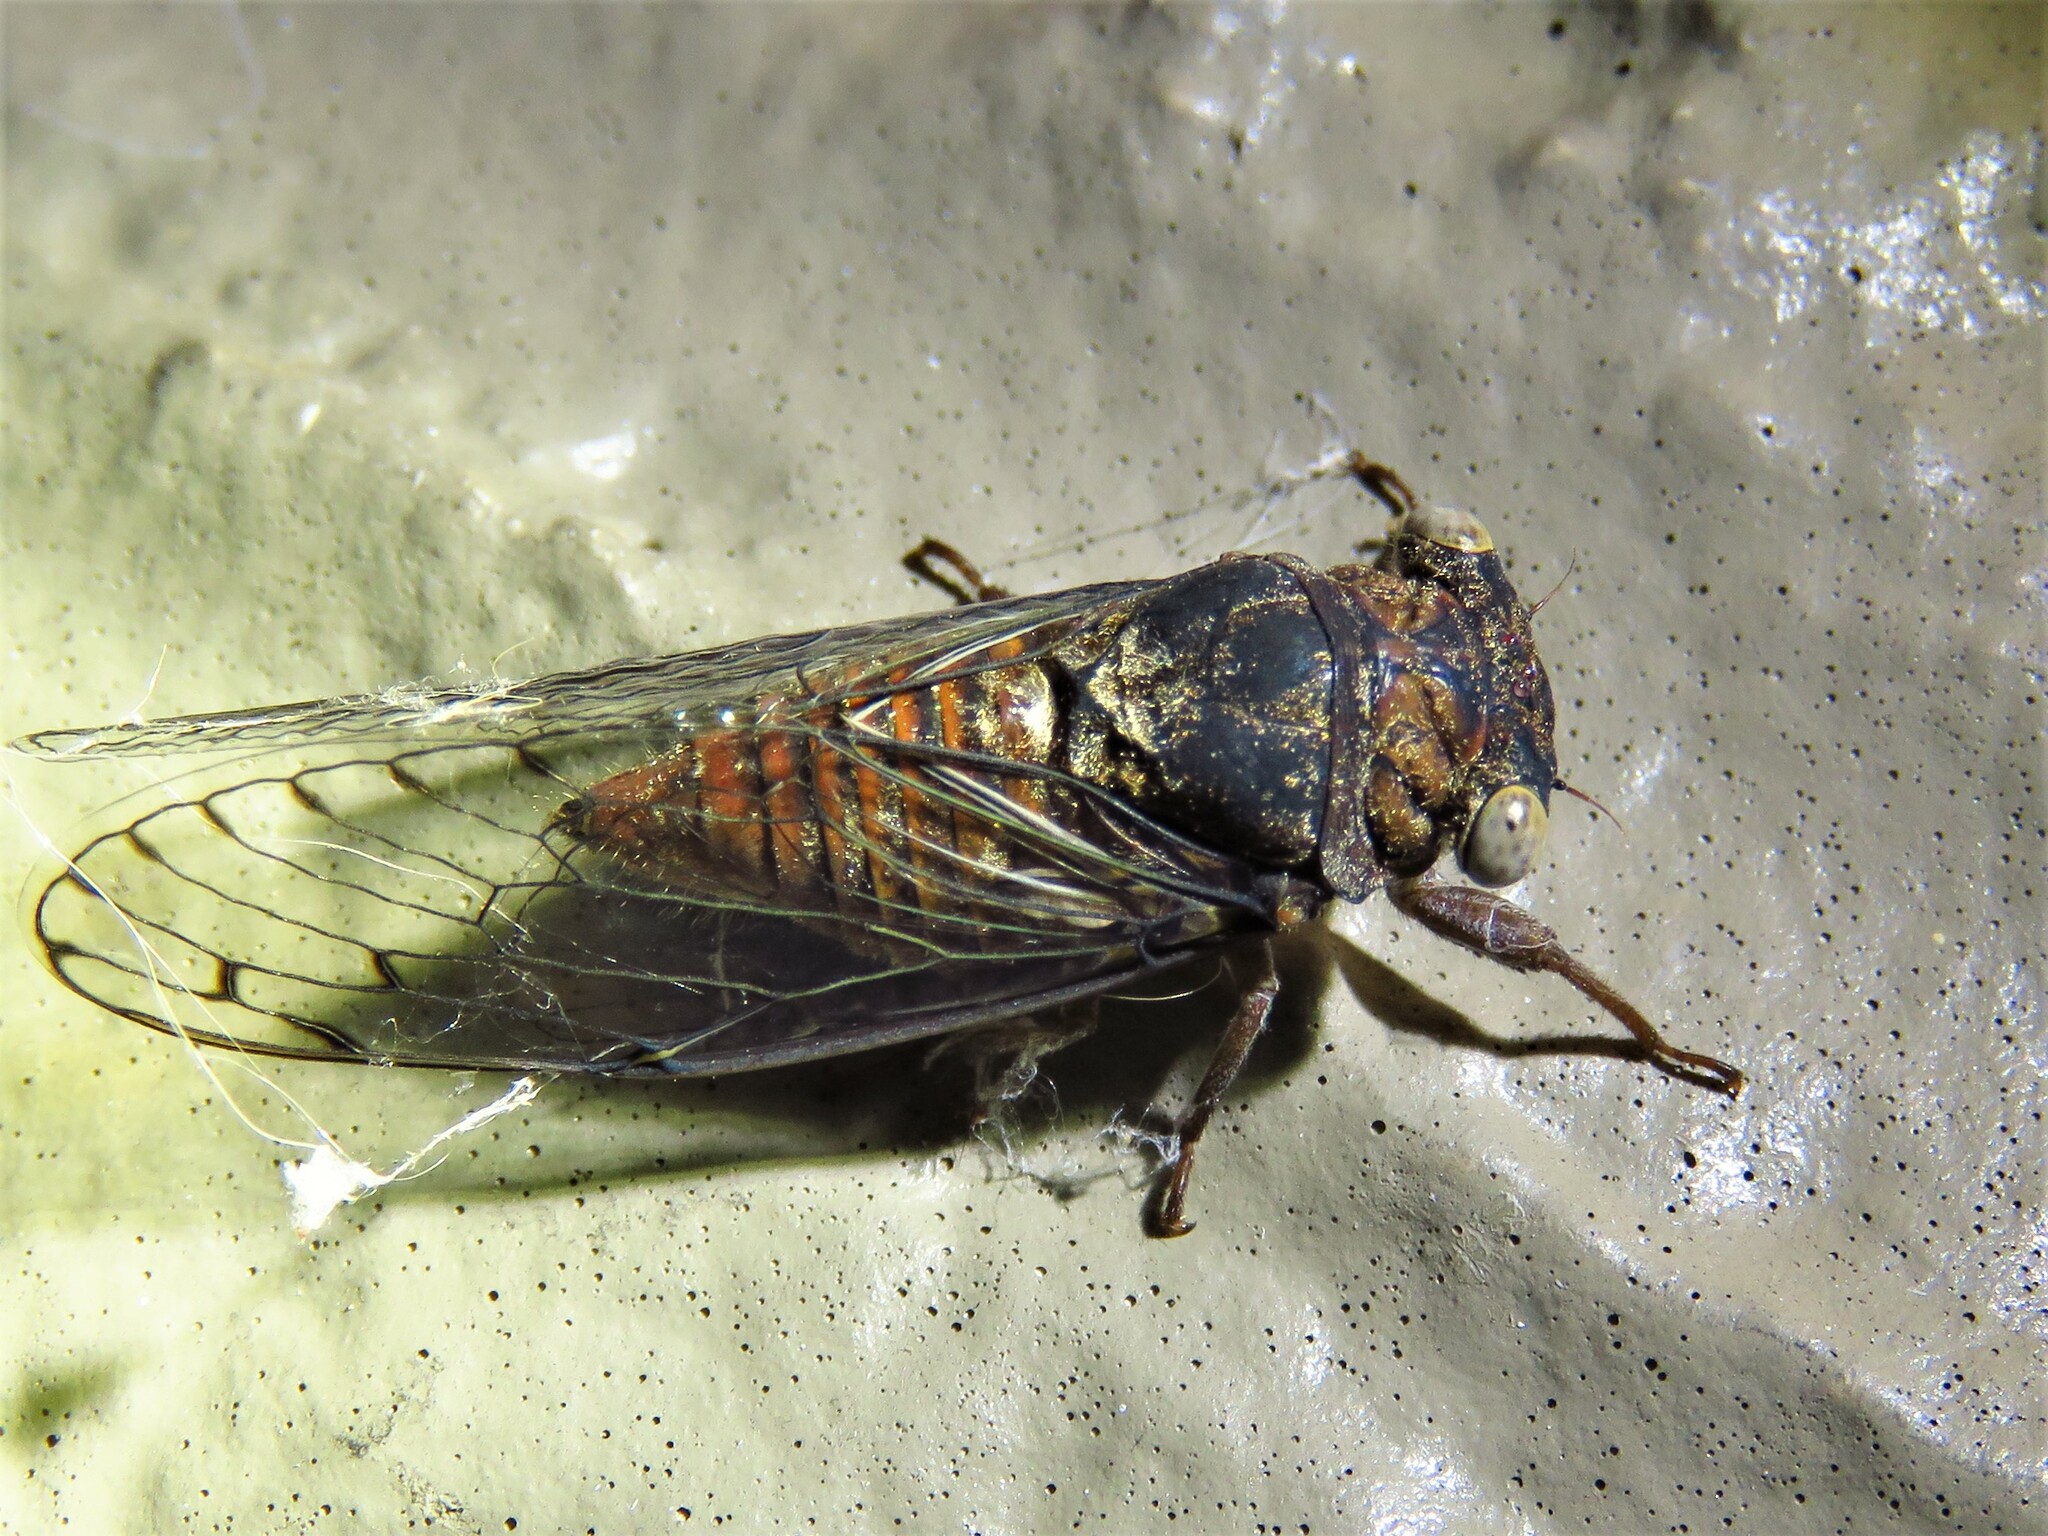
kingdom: Animalia
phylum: Arthropoda
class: Insecta
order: Hemiptera
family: Cicadidae
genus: Pacarina
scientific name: Pacarina puella
